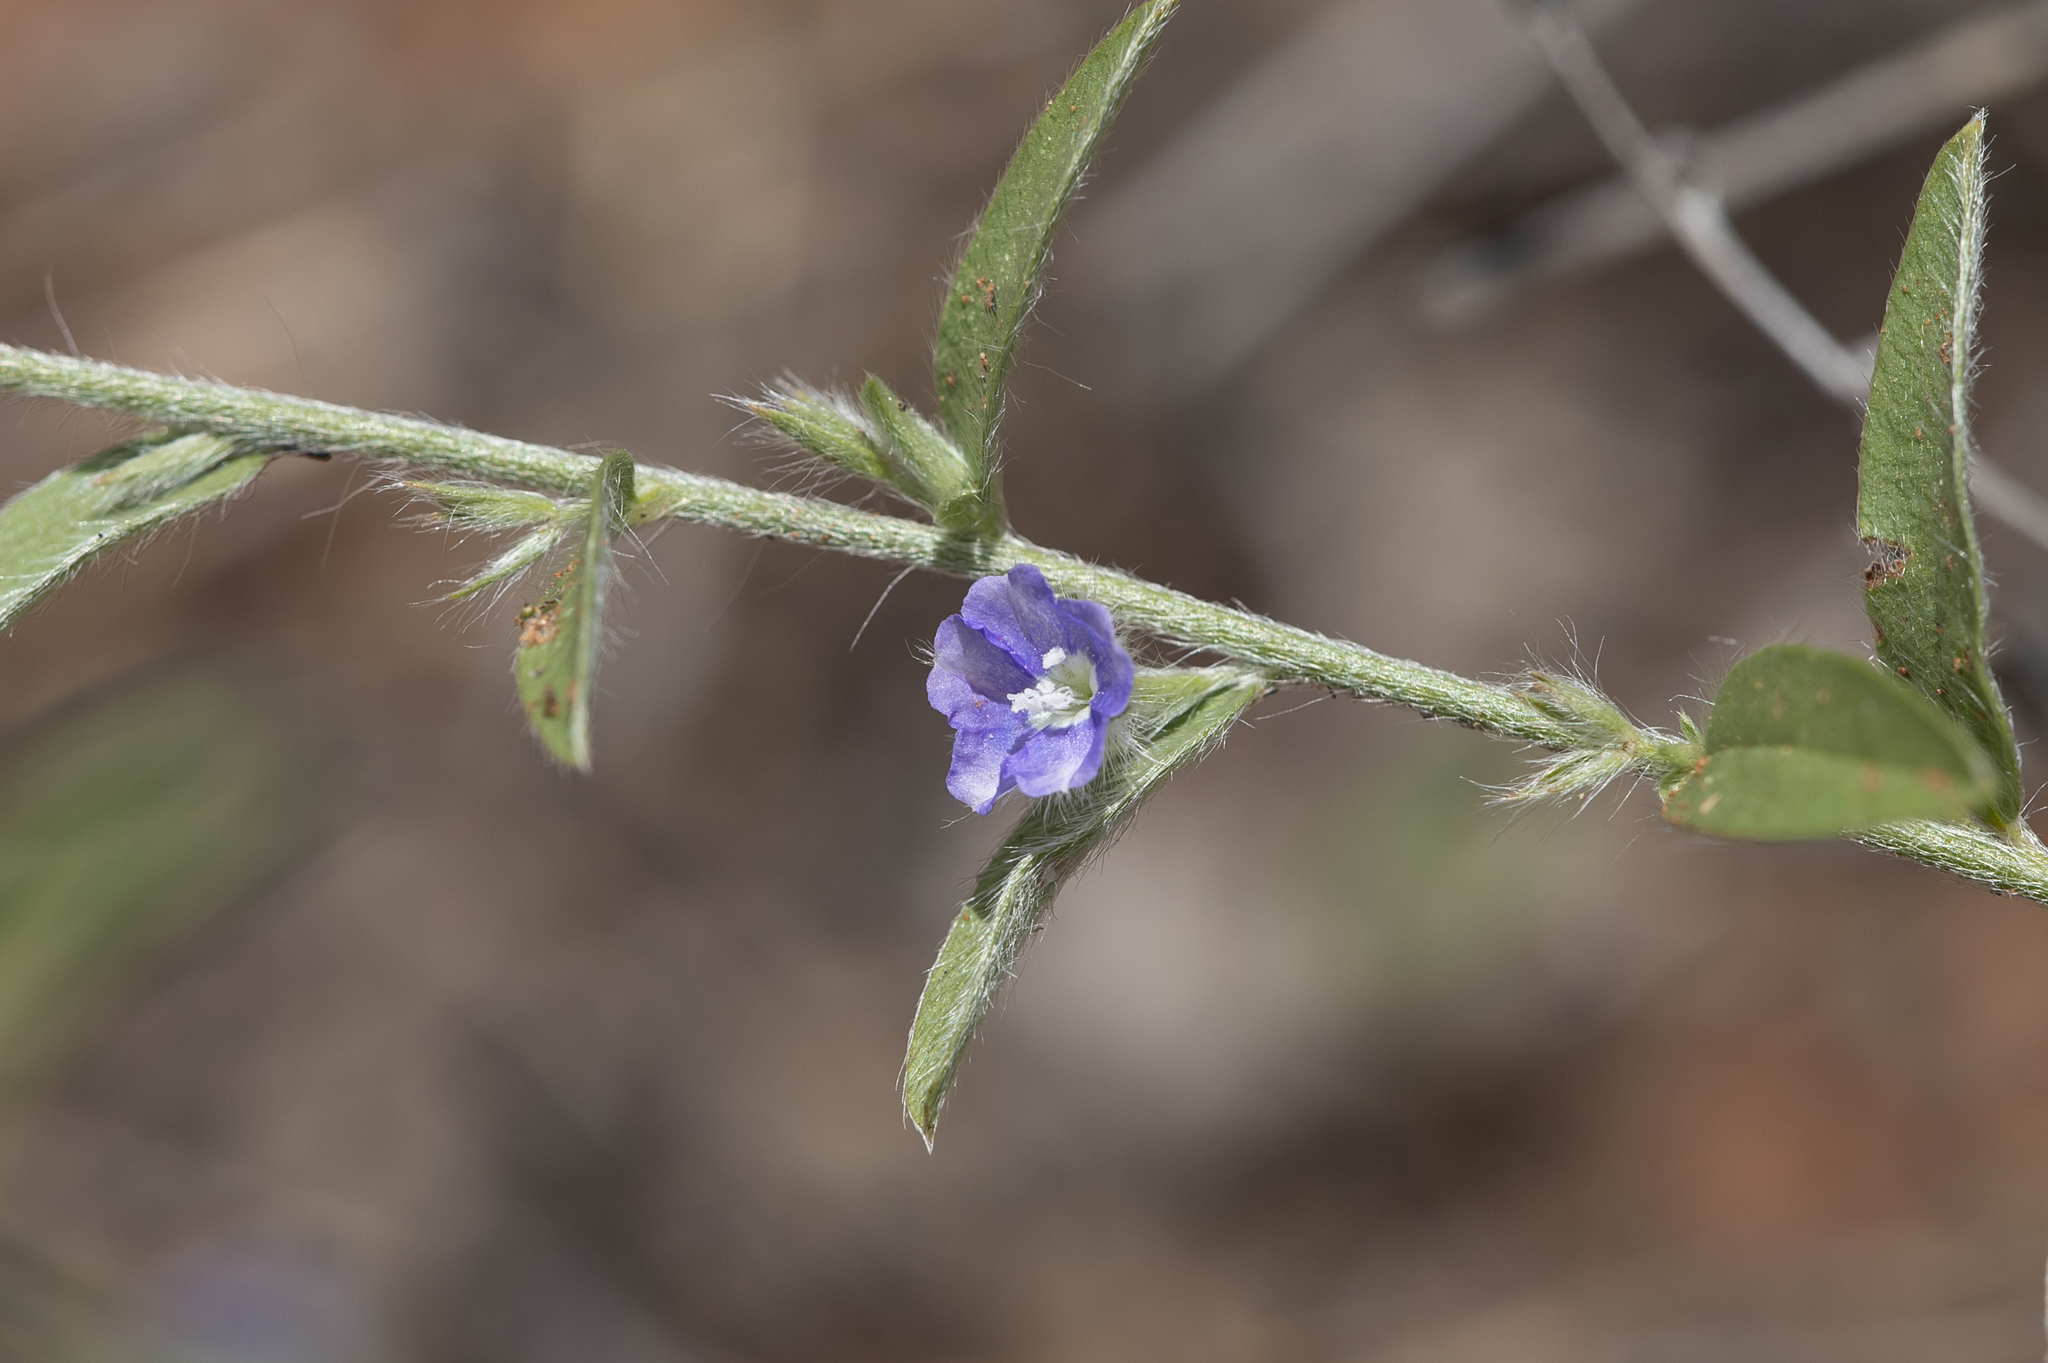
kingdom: Plantae
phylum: Tracheophyta
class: Magnoliopsida
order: Solanales
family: Convolvulaceae
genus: Evolvulus
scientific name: Evolvulus alsinoides
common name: Slender dwarf morning-glory
